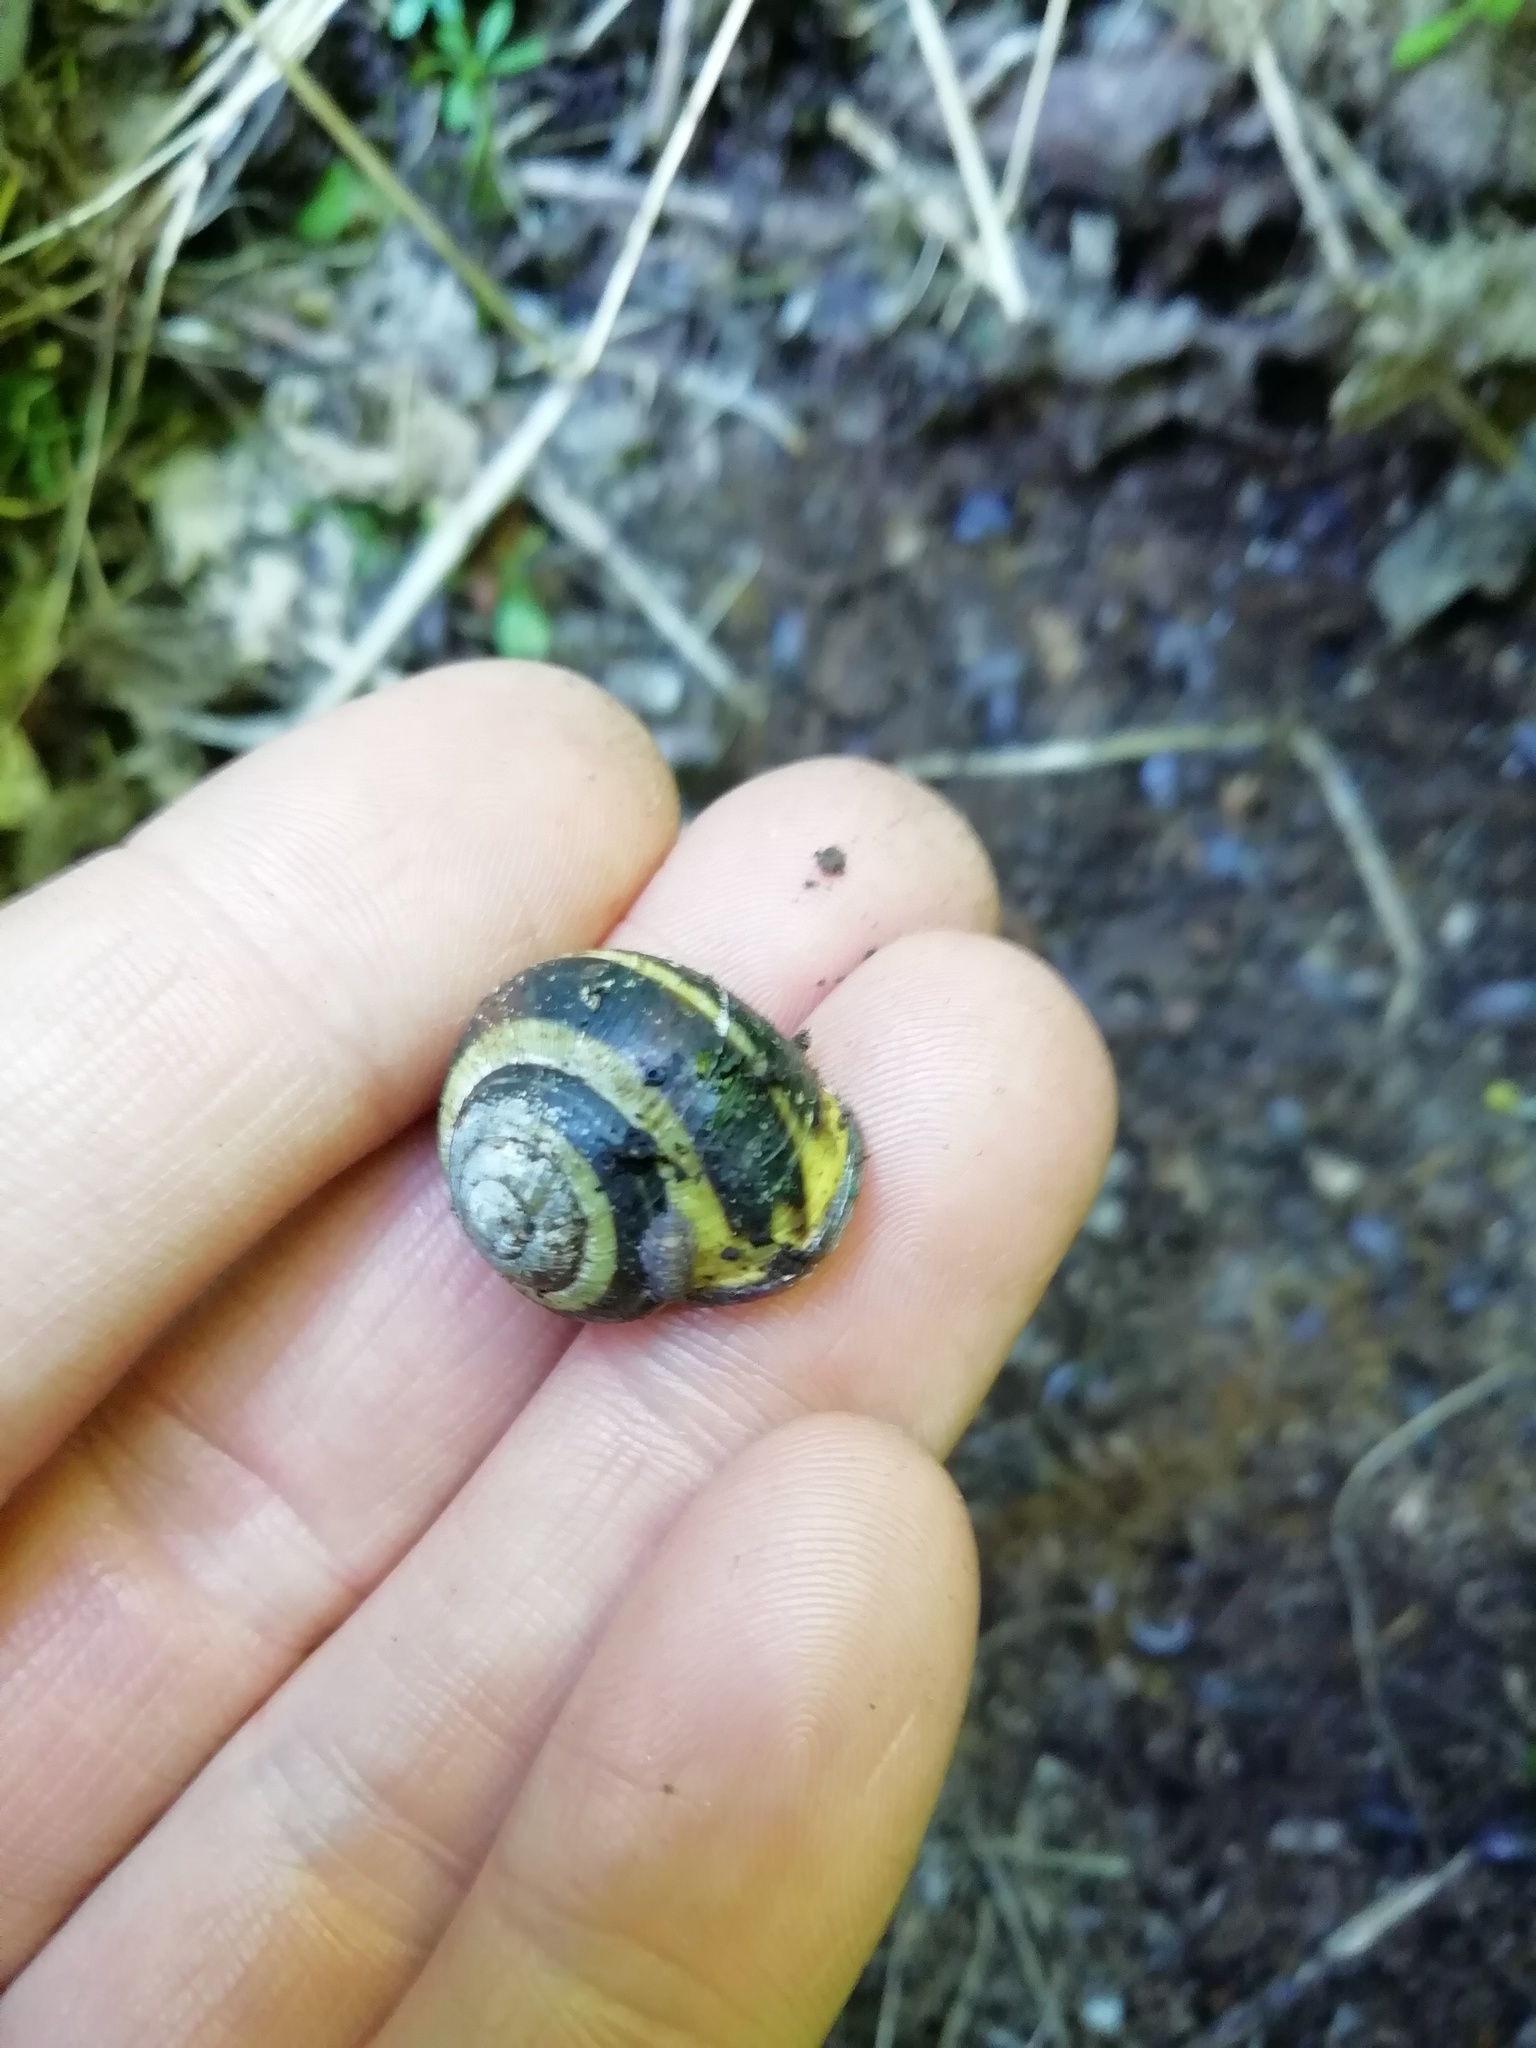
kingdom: Animalia
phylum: Mollusca
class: Gastropoda
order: Stylommatophora
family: Helicidae
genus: Cepaea
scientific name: Cepaea nemoralis
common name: Grovesnail
